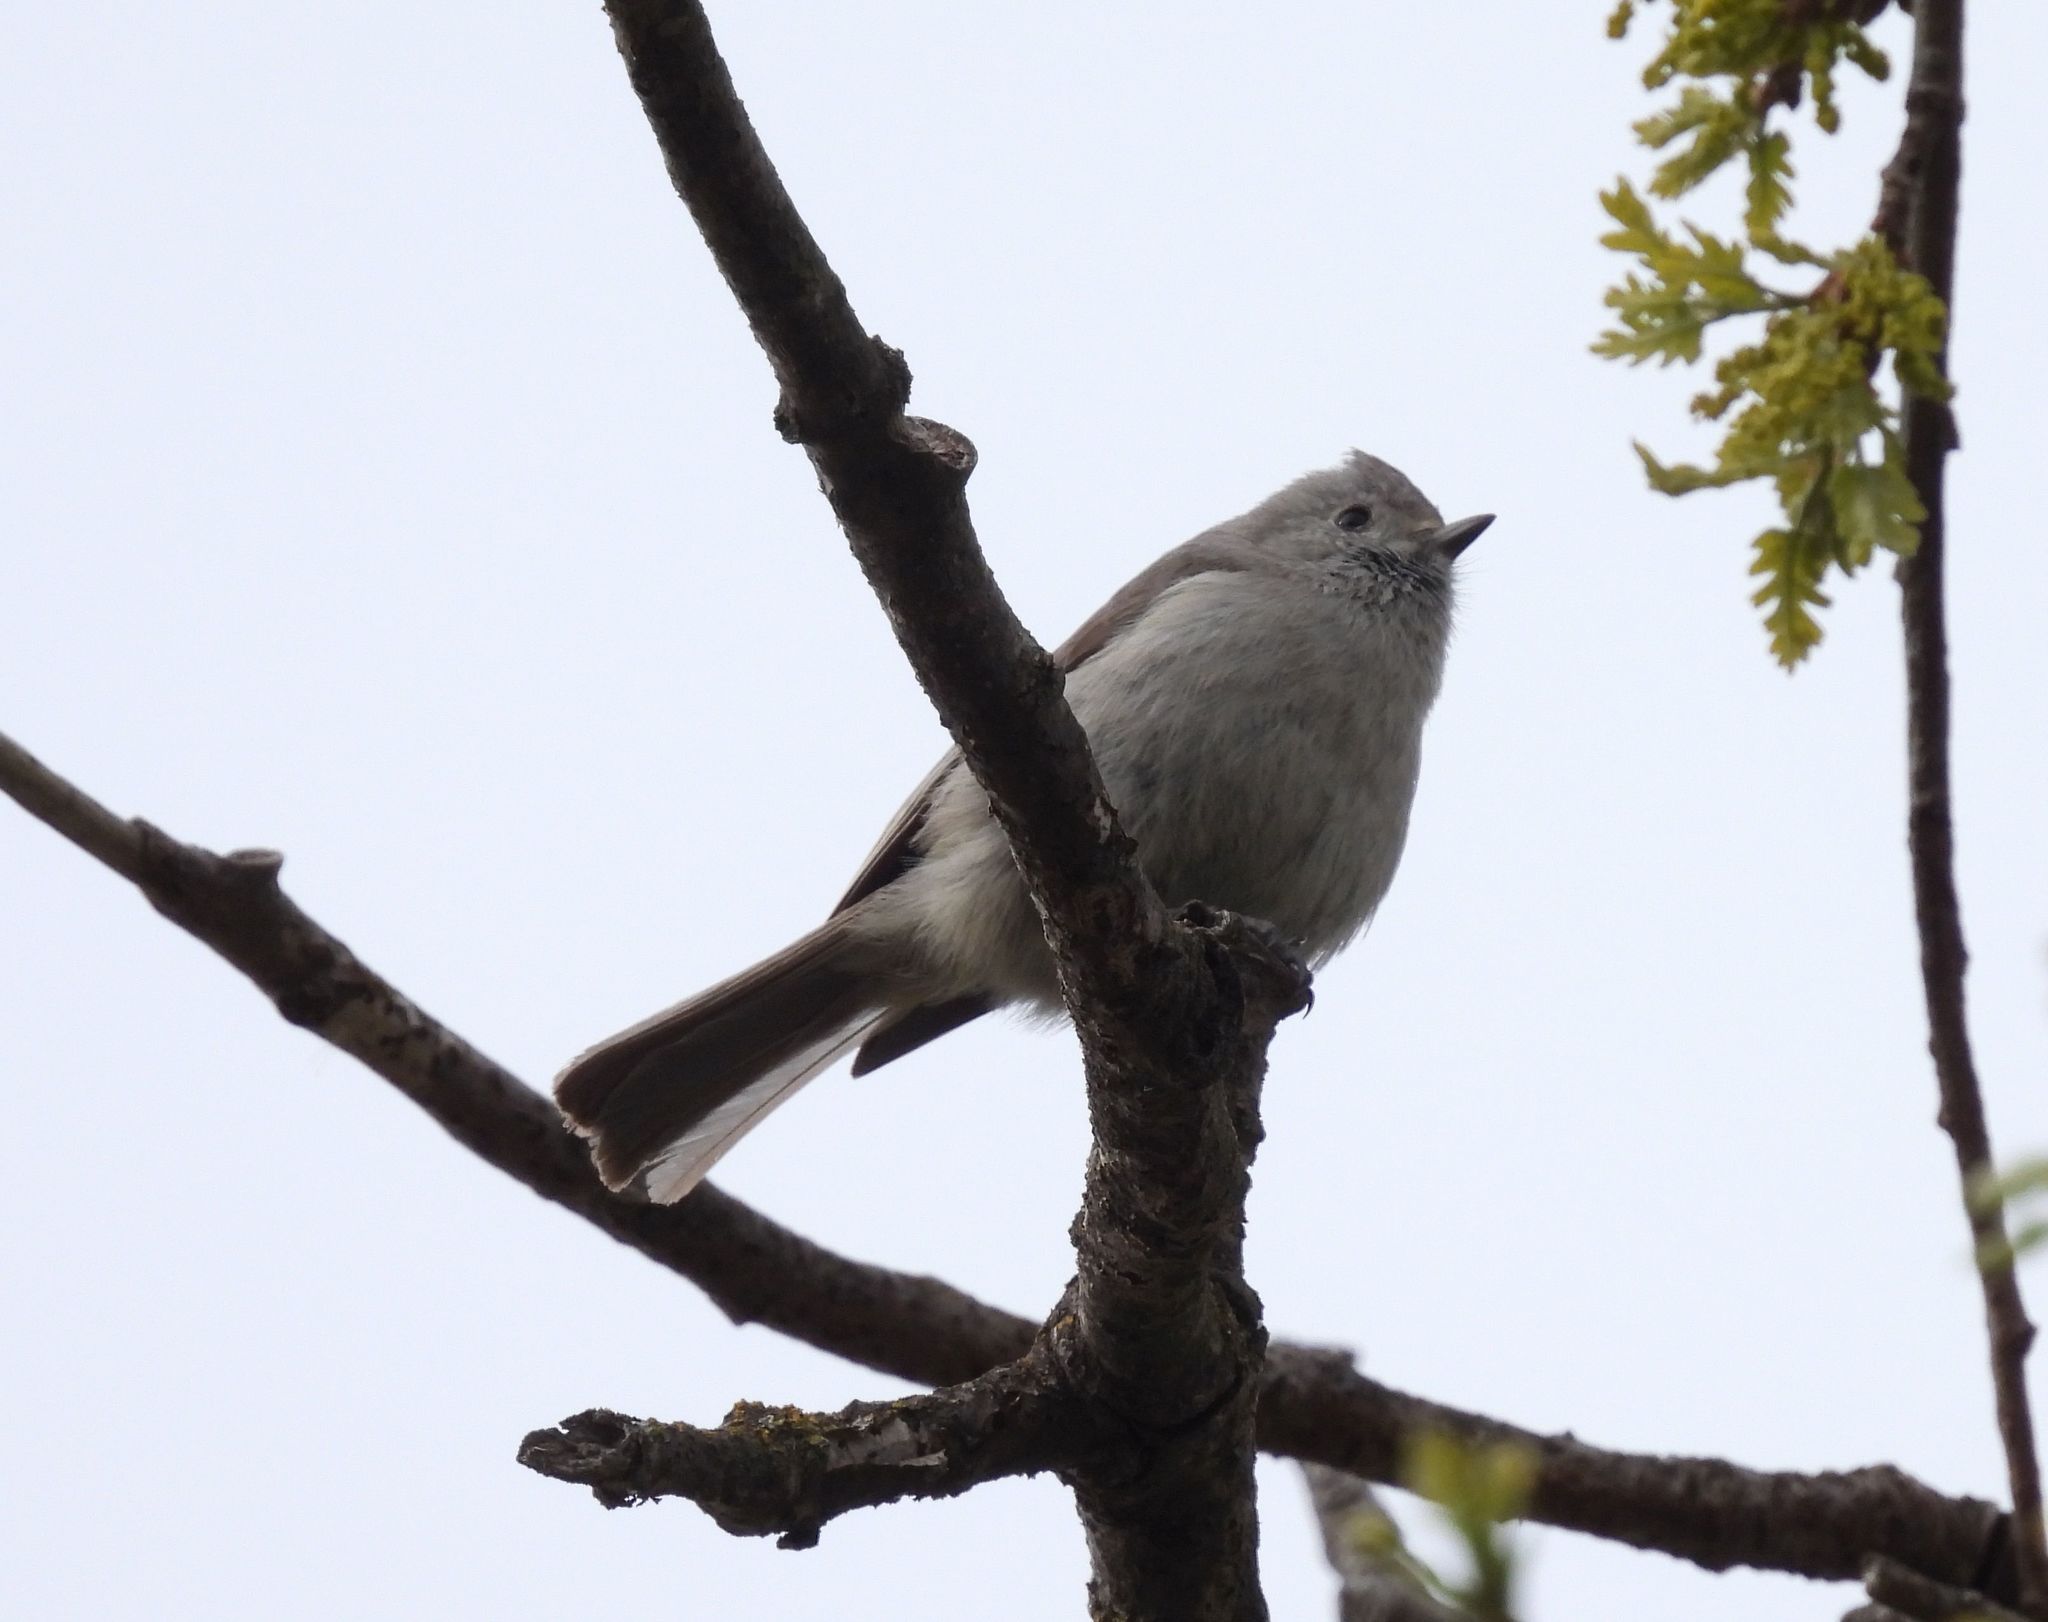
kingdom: Animalia
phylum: Chordata
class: Aves
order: Passeriformes
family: Paridae
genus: Baeolophus
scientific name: Baeolophus inornatus
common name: Oak titmouse
